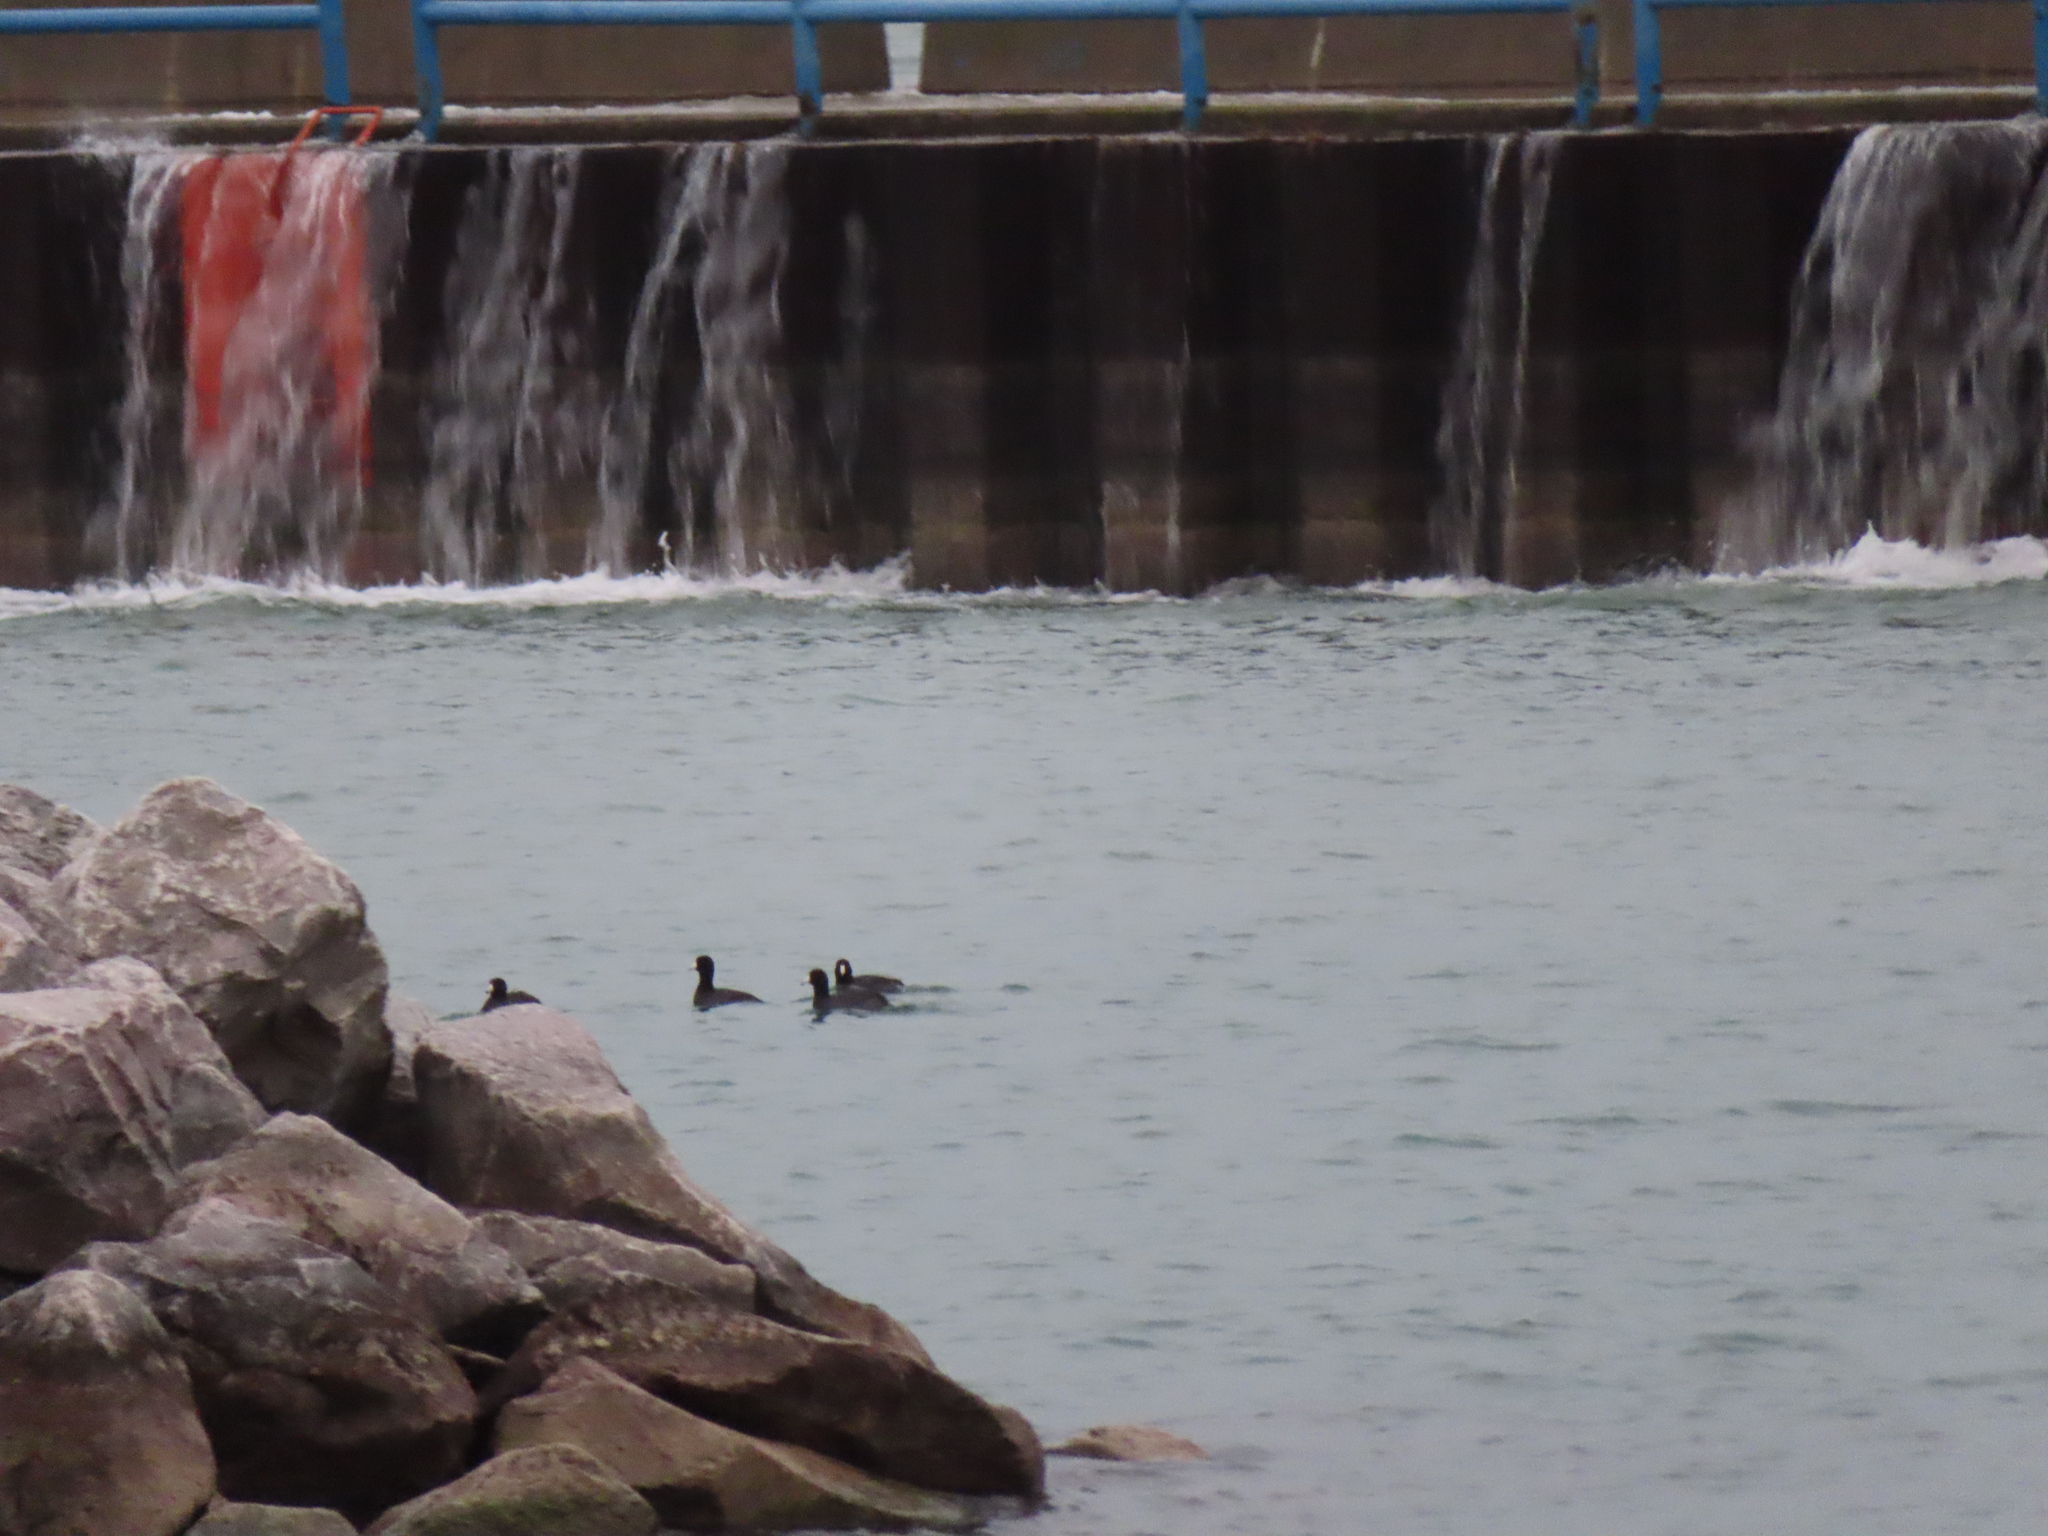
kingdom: Animalia
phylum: Chordata
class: Aves
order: Gruiformes
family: Rallidae
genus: Fulica
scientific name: Fulica americana
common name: American coot
